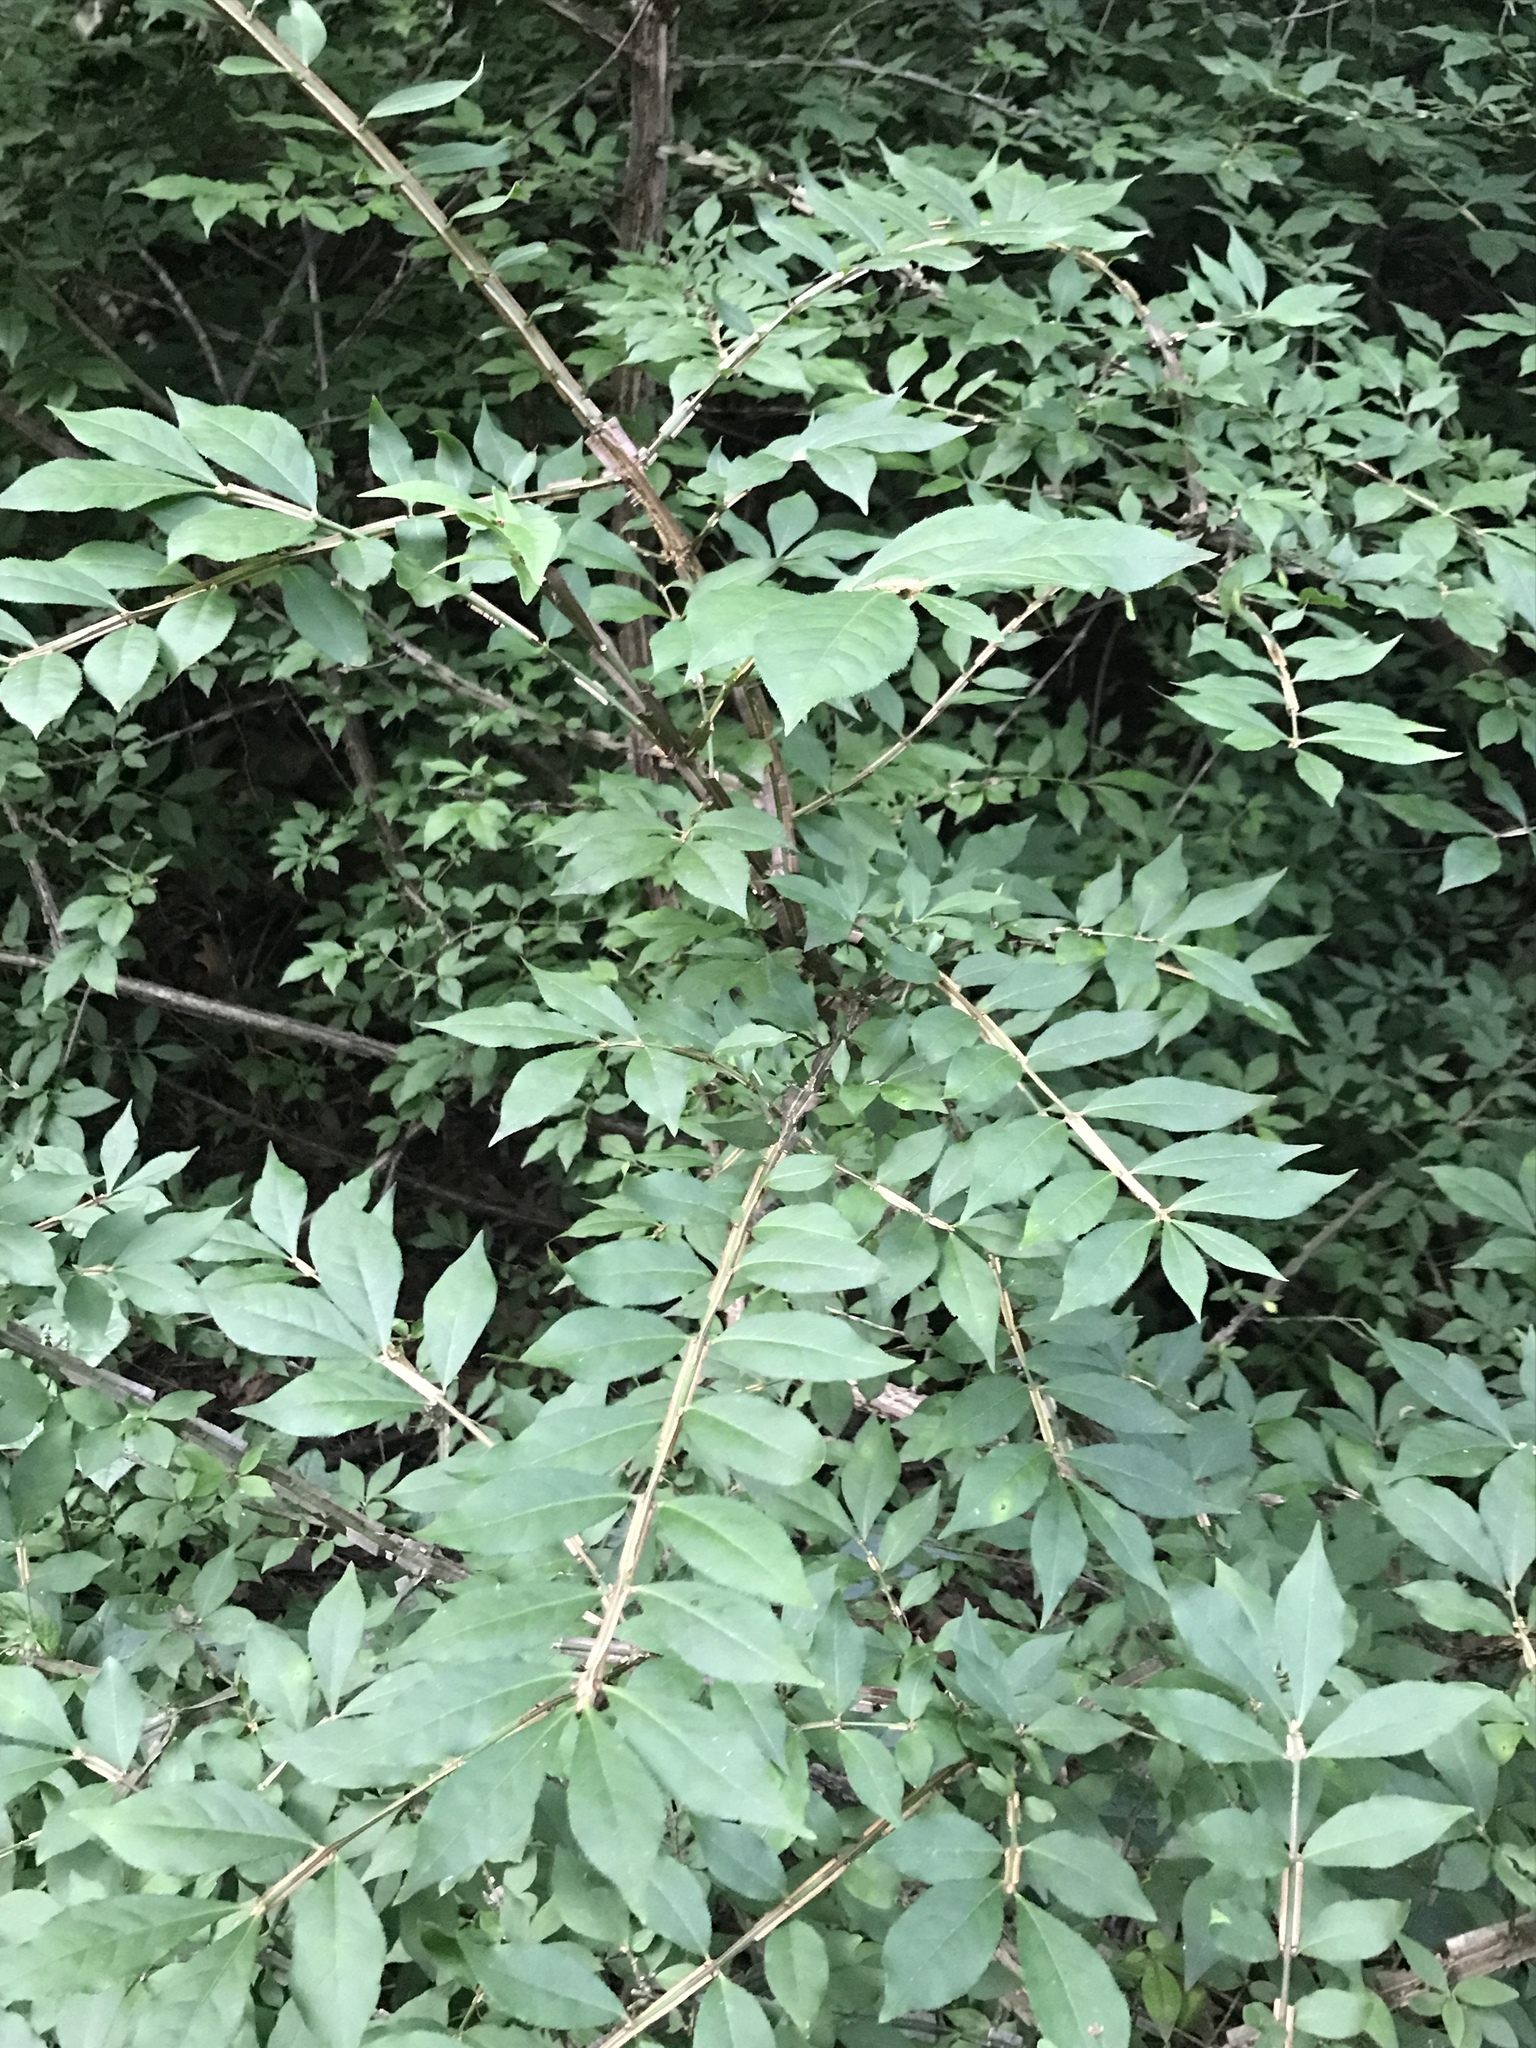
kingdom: Plantae
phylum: Tracheophyta
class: Magnoliopsida
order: Celastrales
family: Celastraceae
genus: Euonymus
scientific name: Euonymus alatus
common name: Winged euonymus
